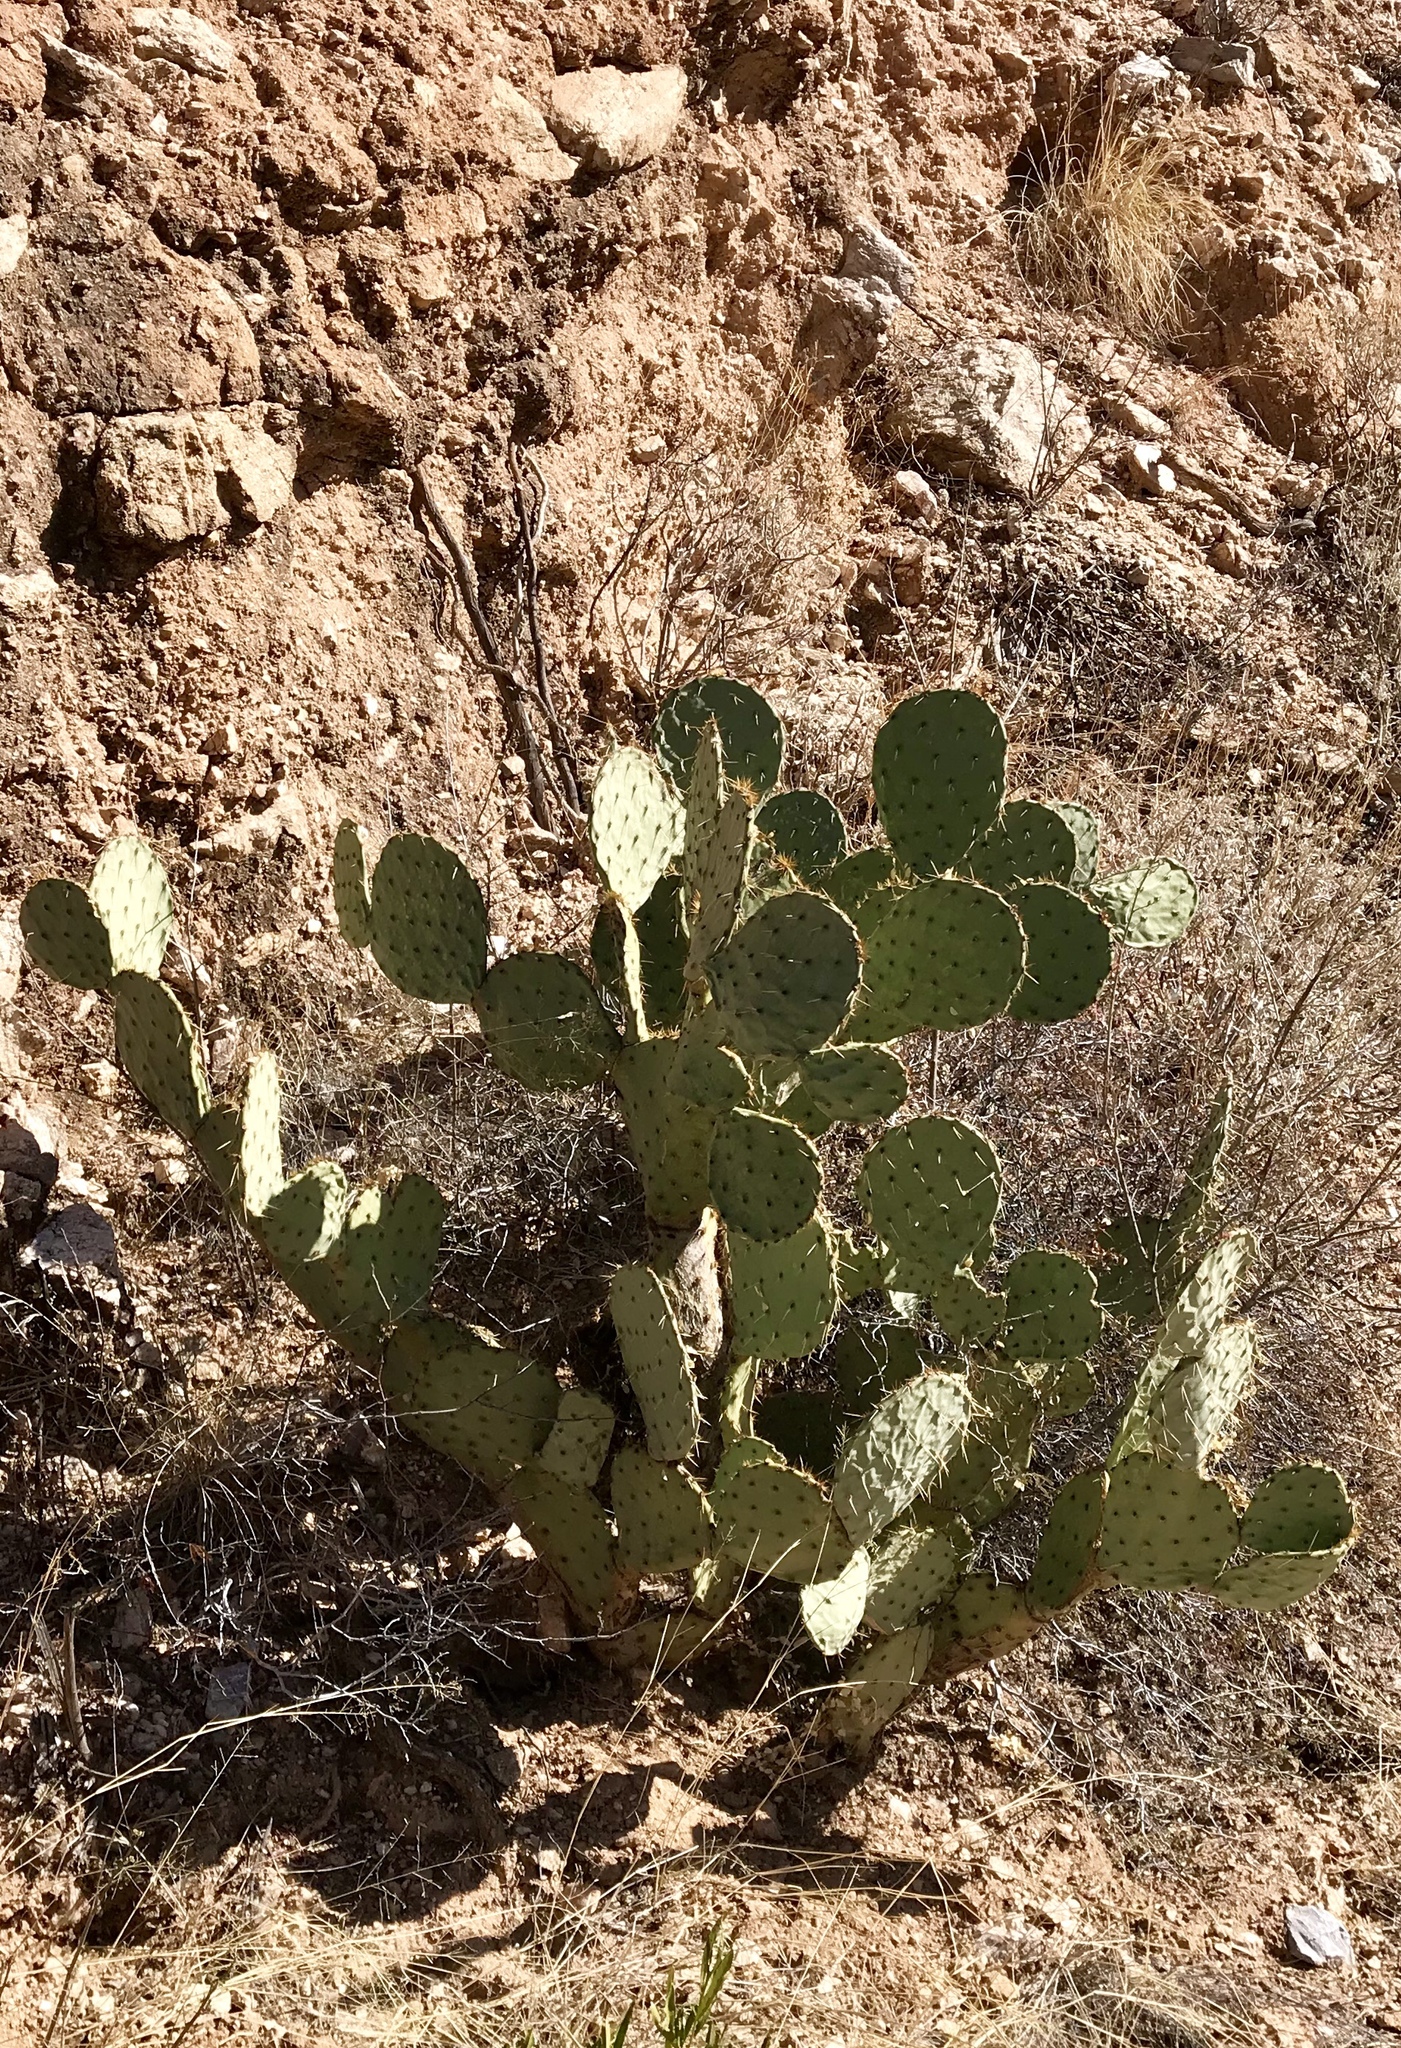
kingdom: Plantae
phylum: Tracheophyta
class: Magnoliopsida
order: Caryophyllales
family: Cactaceae
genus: Opuntia
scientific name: Opuntia engelmannii
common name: Cactus-apple
